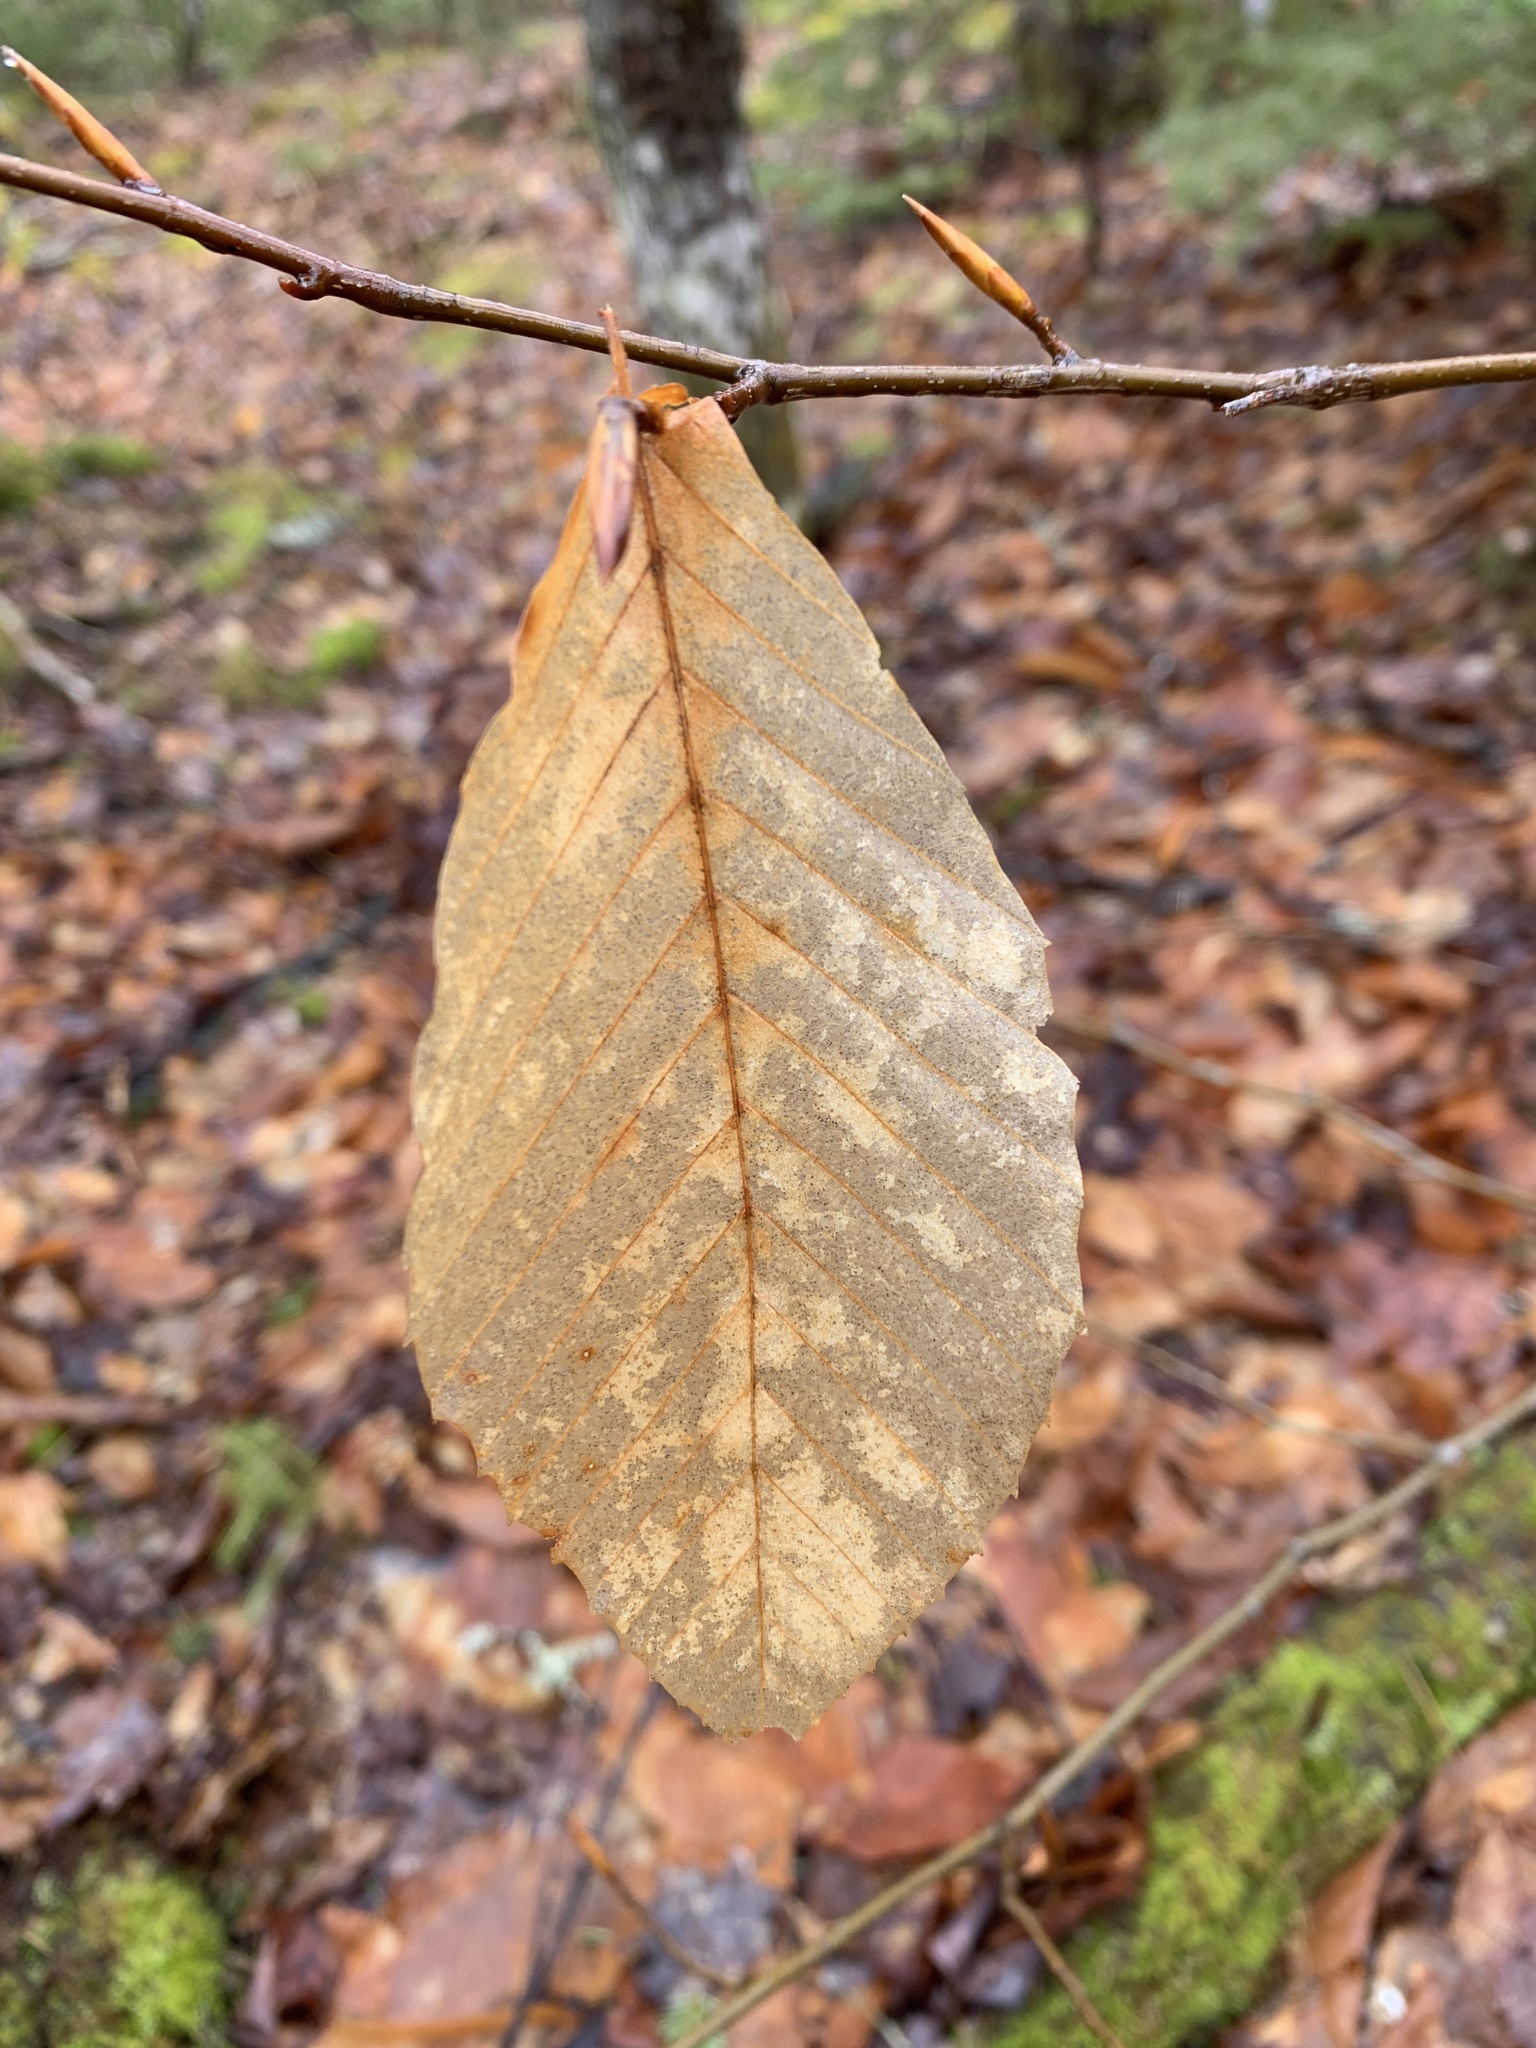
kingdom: Plantae
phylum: Tracheophyta
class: Magnoliopsida
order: Fagales
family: Fagaceae
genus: Fagus
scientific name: Fagus grandifolia
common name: American beech
